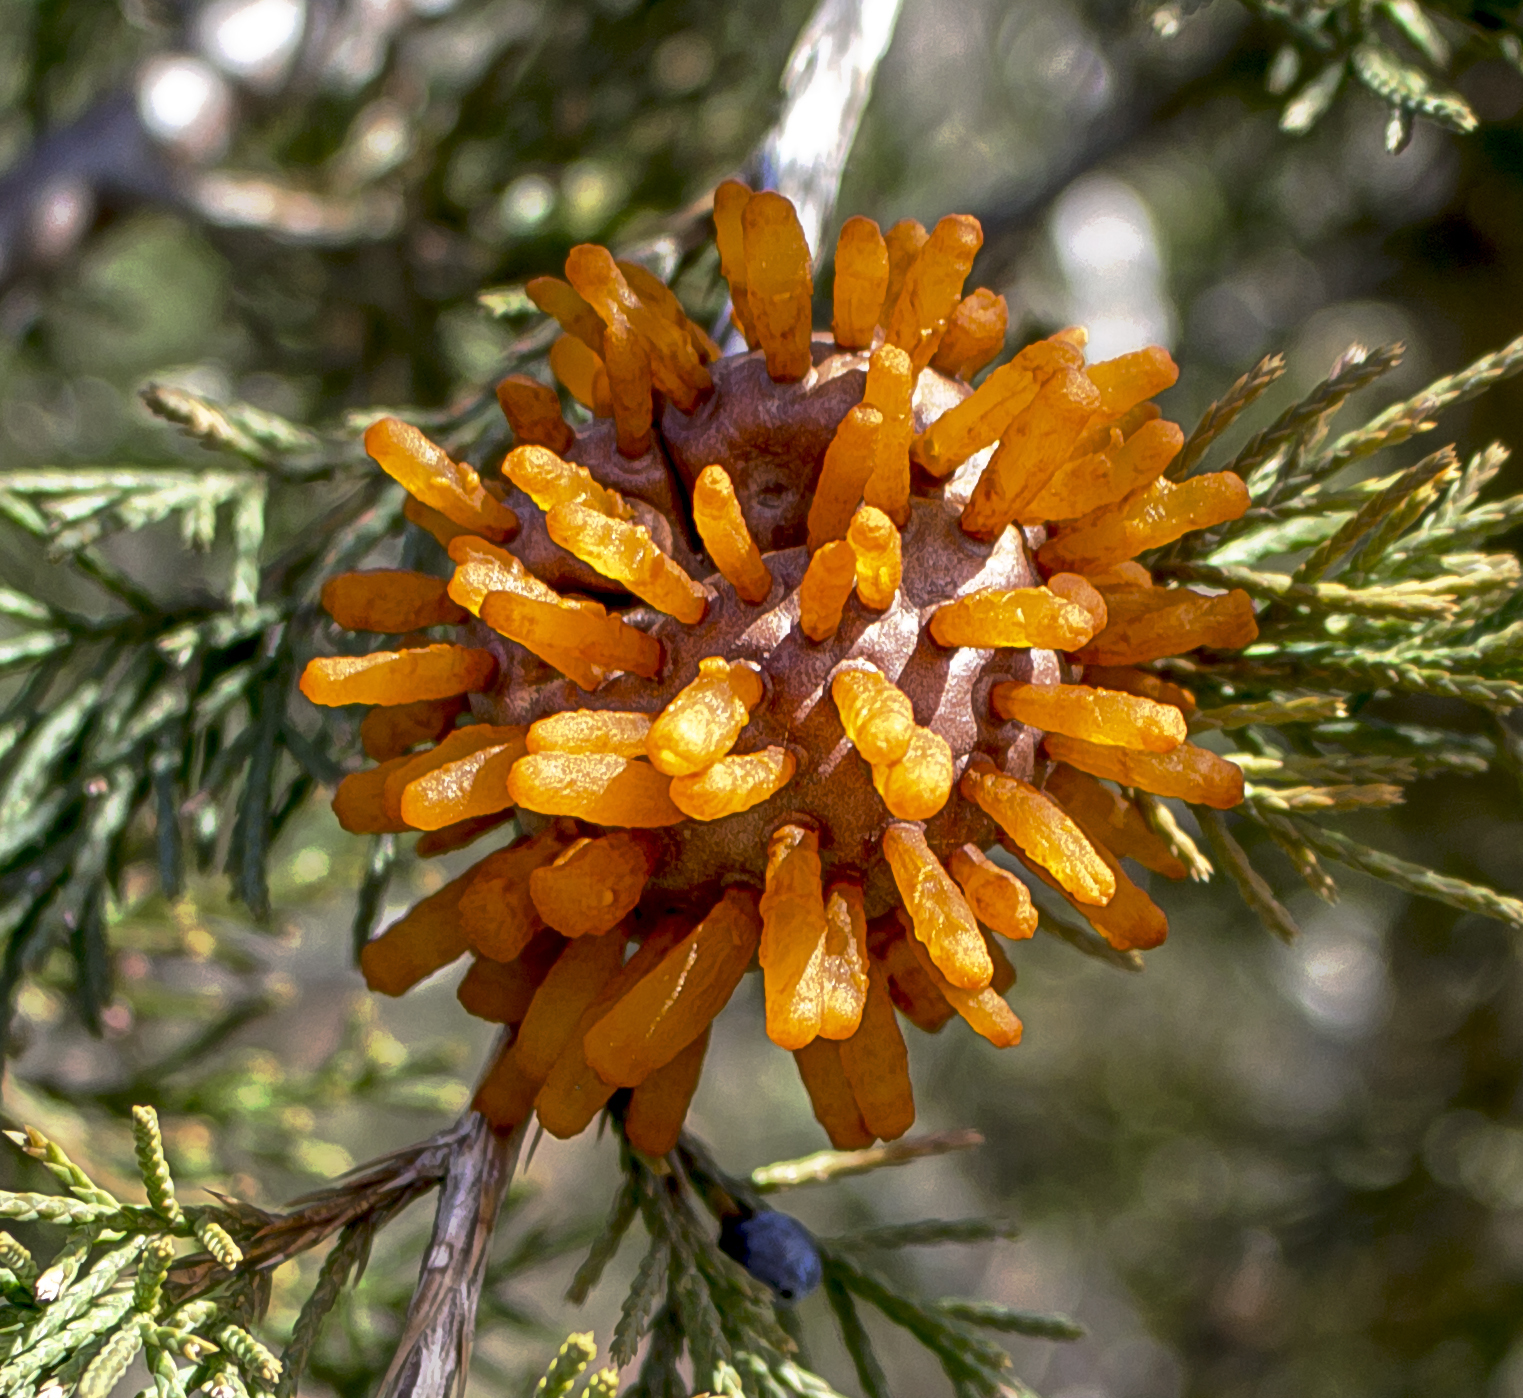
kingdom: Fungi
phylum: Basidiomycota
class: Pucciniomycetes
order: Pucciniales
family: Gymnosporangiaceae
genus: Gymnosporangium
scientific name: Gymnosporangium juniperi-virginianae
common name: Juniper-apple rust
